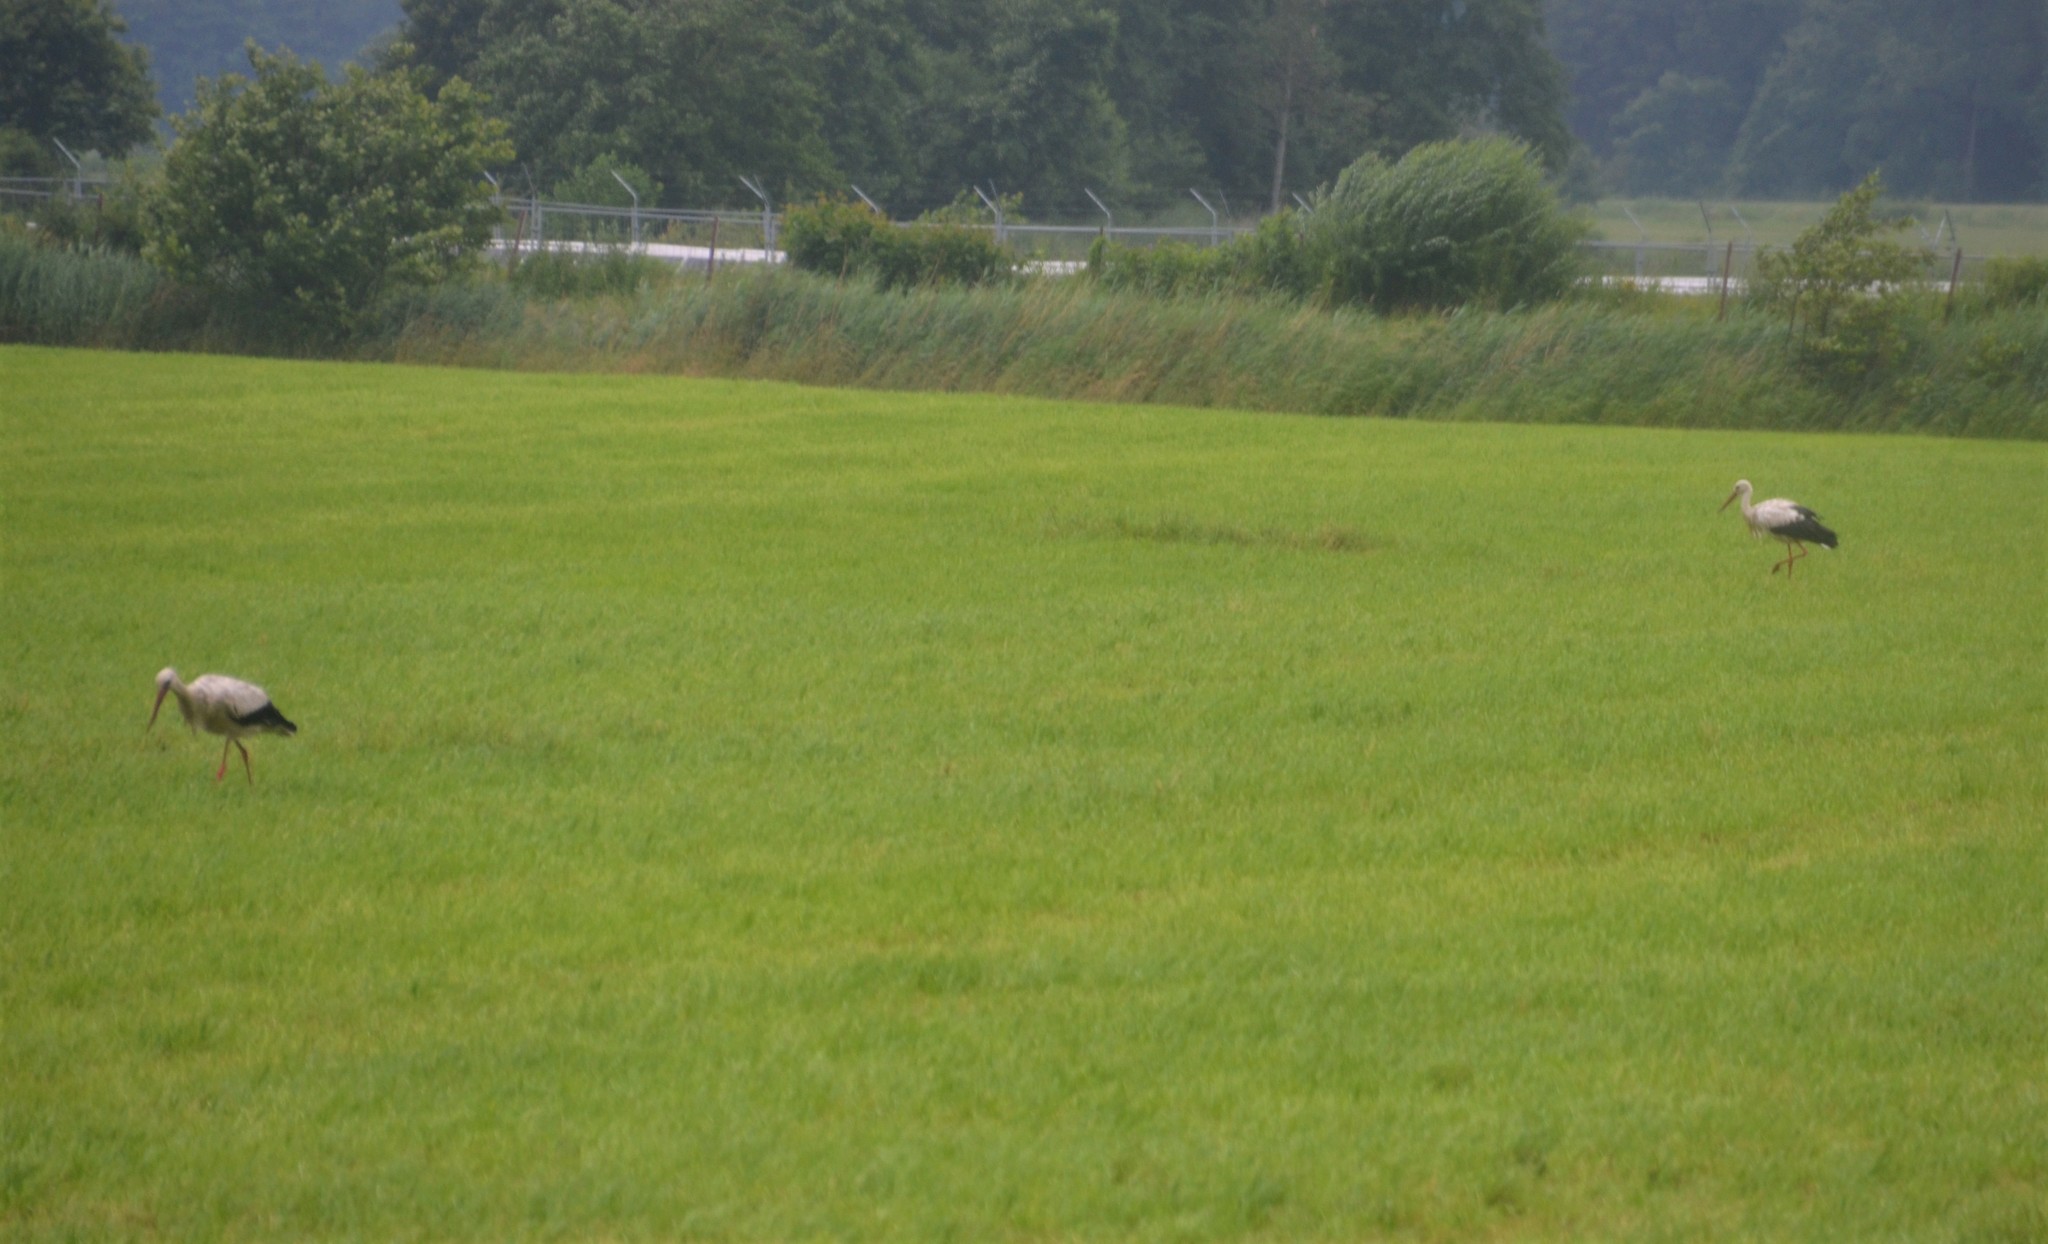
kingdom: Animalia
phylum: Chordata
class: Aves
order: Ciconiiformes
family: Ciconiidae
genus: Ciconia
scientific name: Ciconia ciconia
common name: White stork
